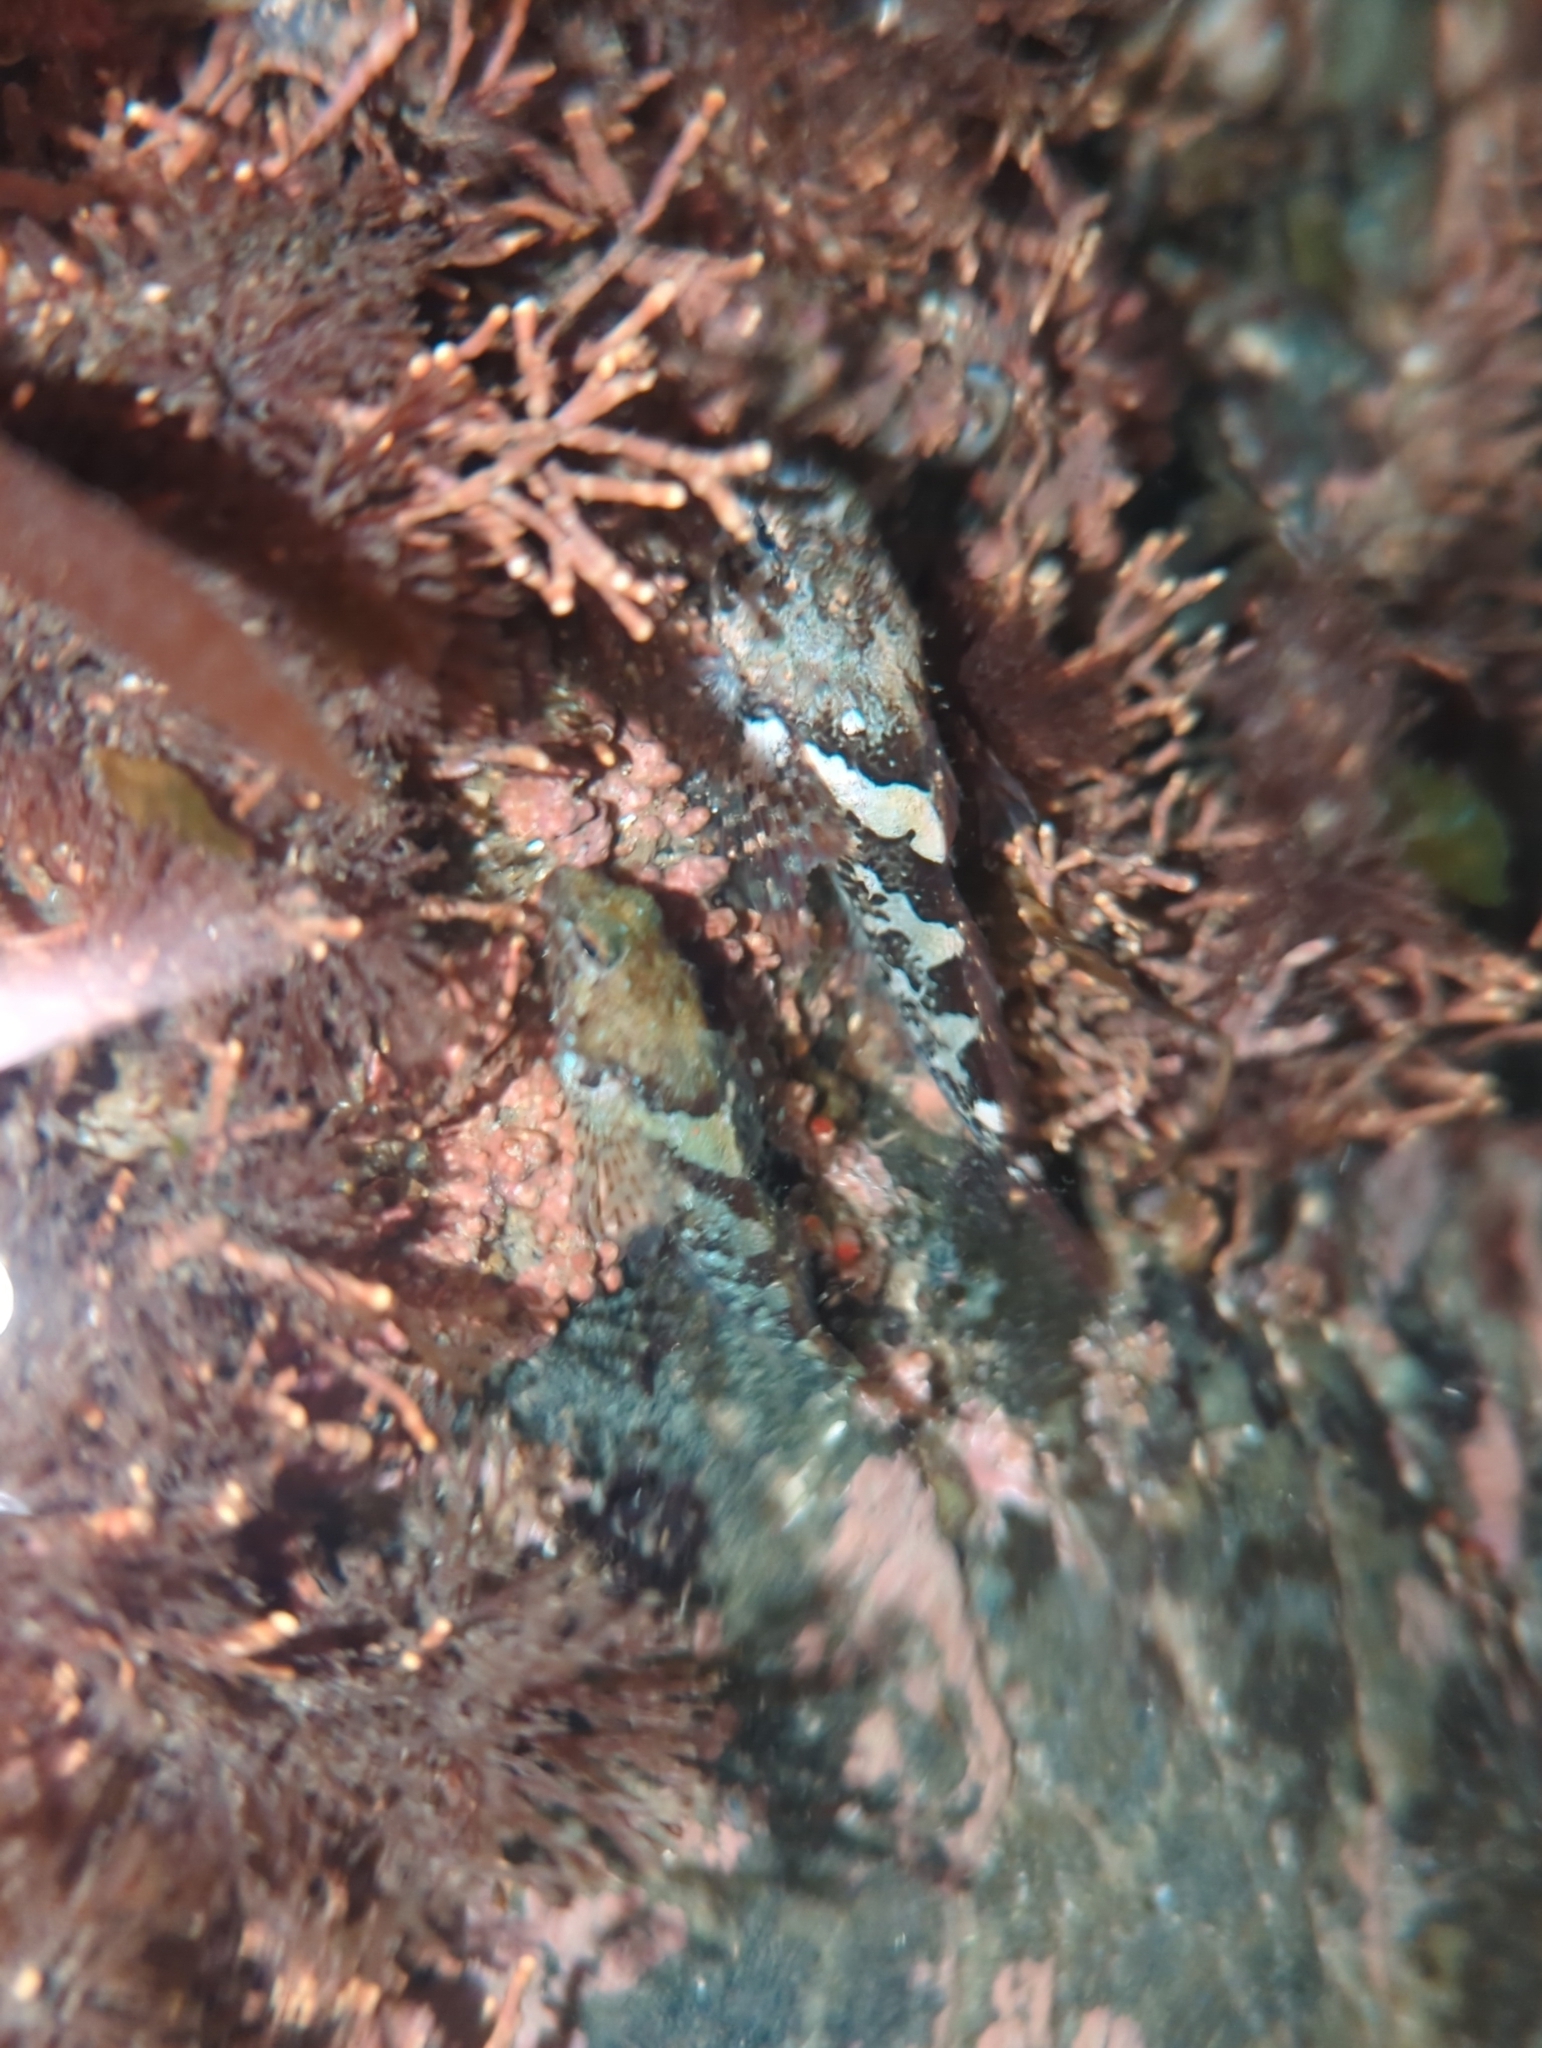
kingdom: Animalia
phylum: Chordata
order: Scorpaeniformes
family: Cottidae
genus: Oligocottus
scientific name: Oligocottus maculosus
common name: Tidepool sculpin
